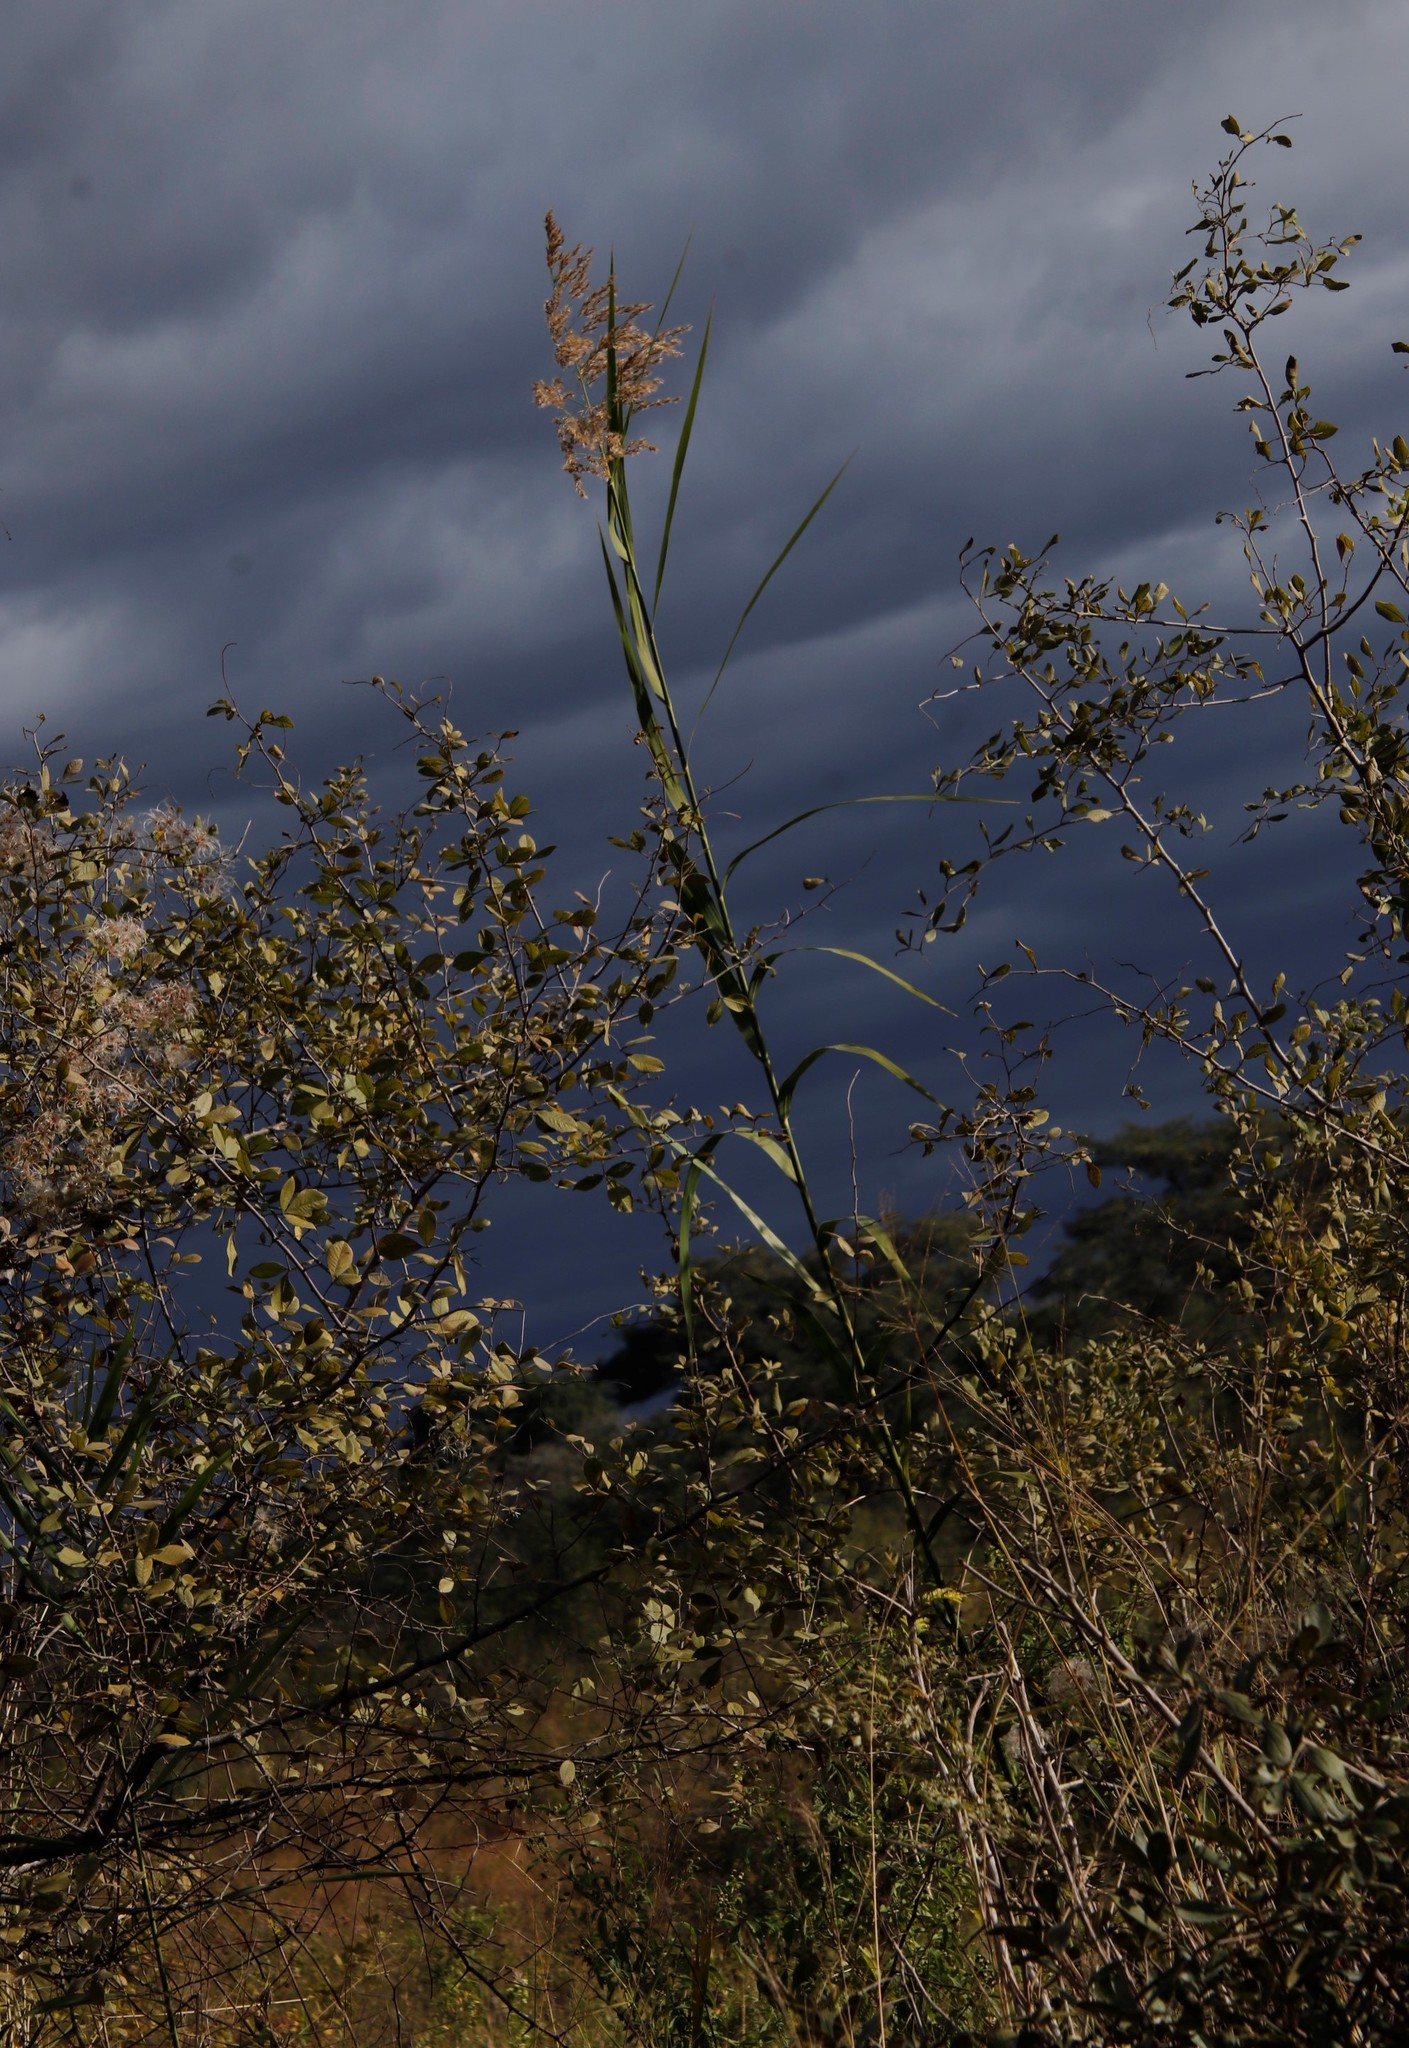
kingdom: Plantae
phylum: Tracheophyta
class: Liliopsida
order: Poales
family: Poaceae
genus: Phragmites
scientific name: Phragmites australis
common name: Common reed
